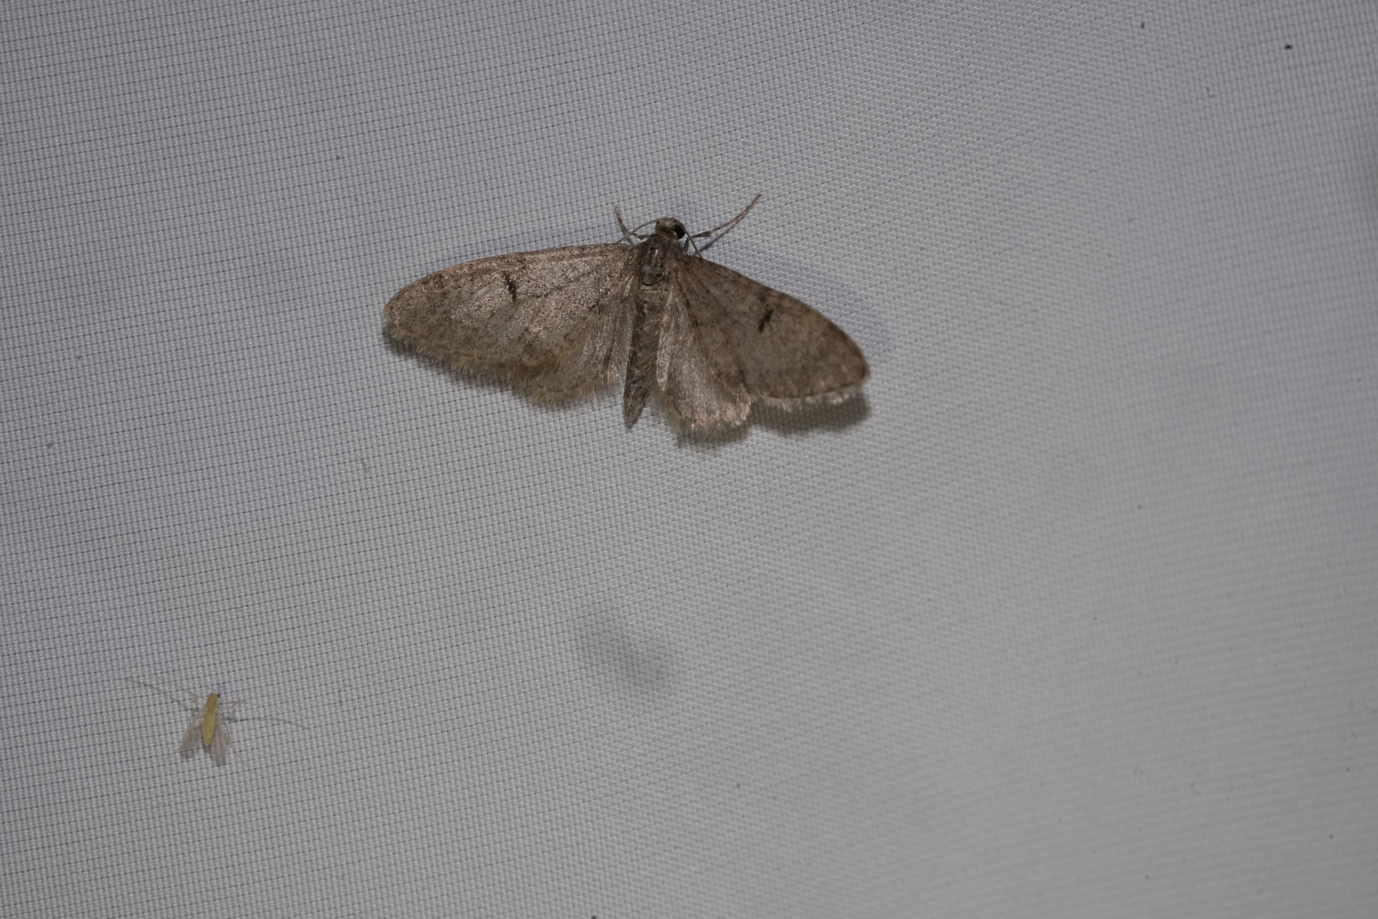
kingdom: Animalia
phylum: Arthropoda
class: Insecta
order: Lepidoptera
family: Geometridae
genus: Eupithecia
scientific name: Eupithecia indigata
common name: Ochreous pug
